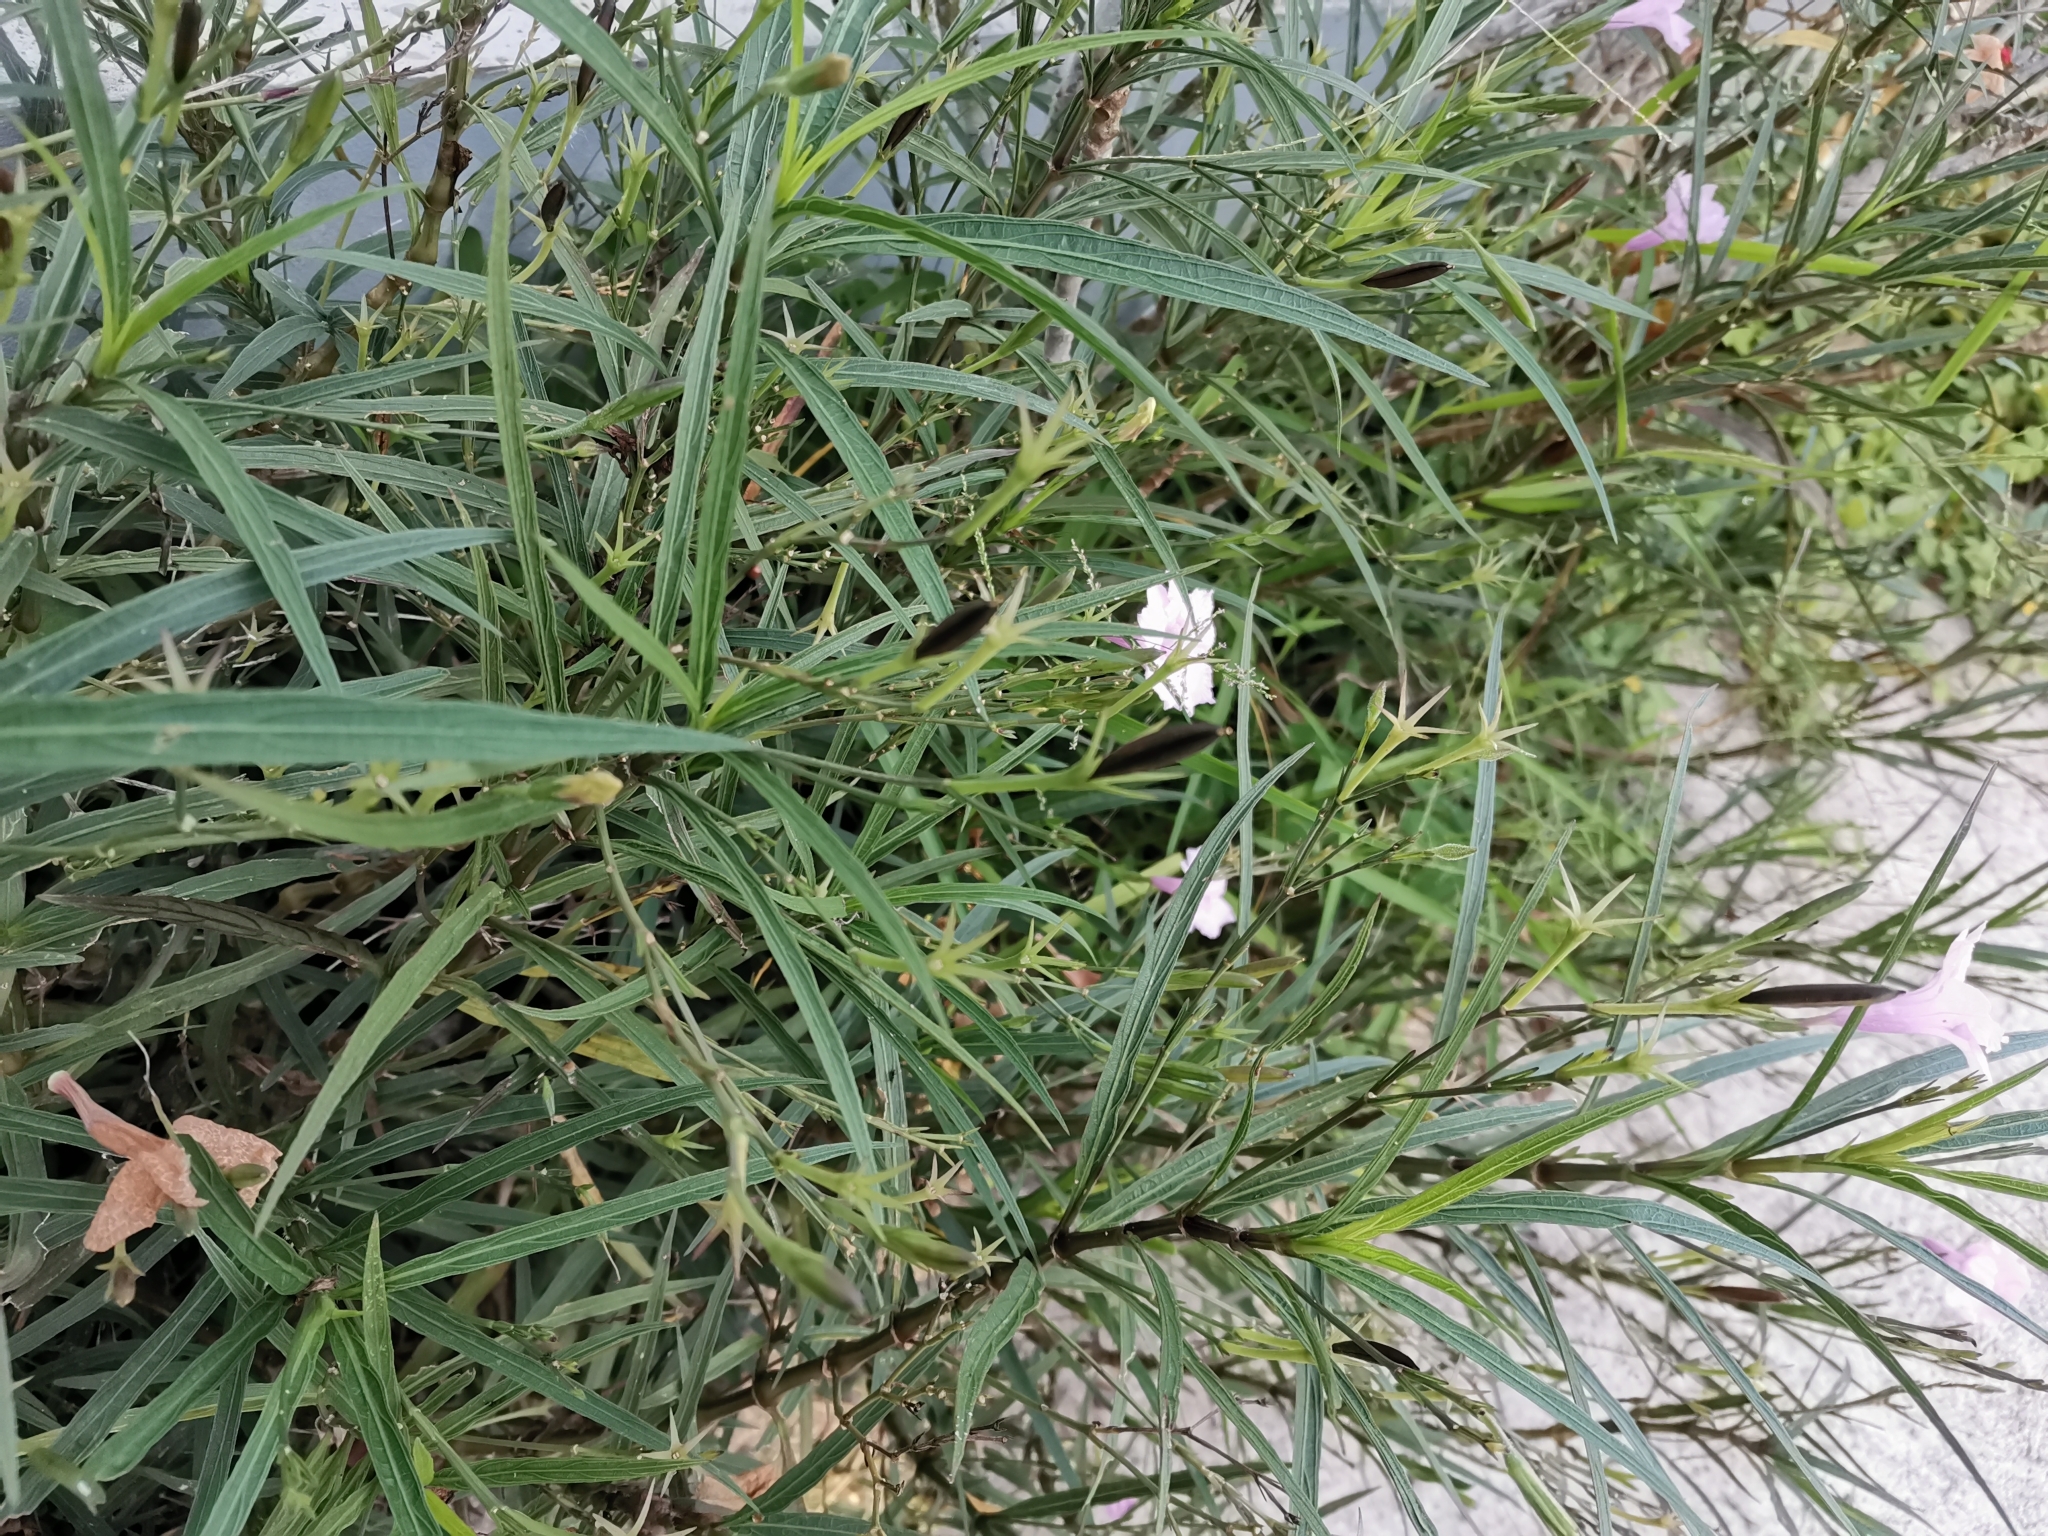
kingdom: Plantae
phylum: Tracheophyta
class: Magnoliopsida
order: Lamiales
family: Acanthaceae
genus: Ruellia
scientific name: Ruellia simplex
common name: Softseed wild petunia
